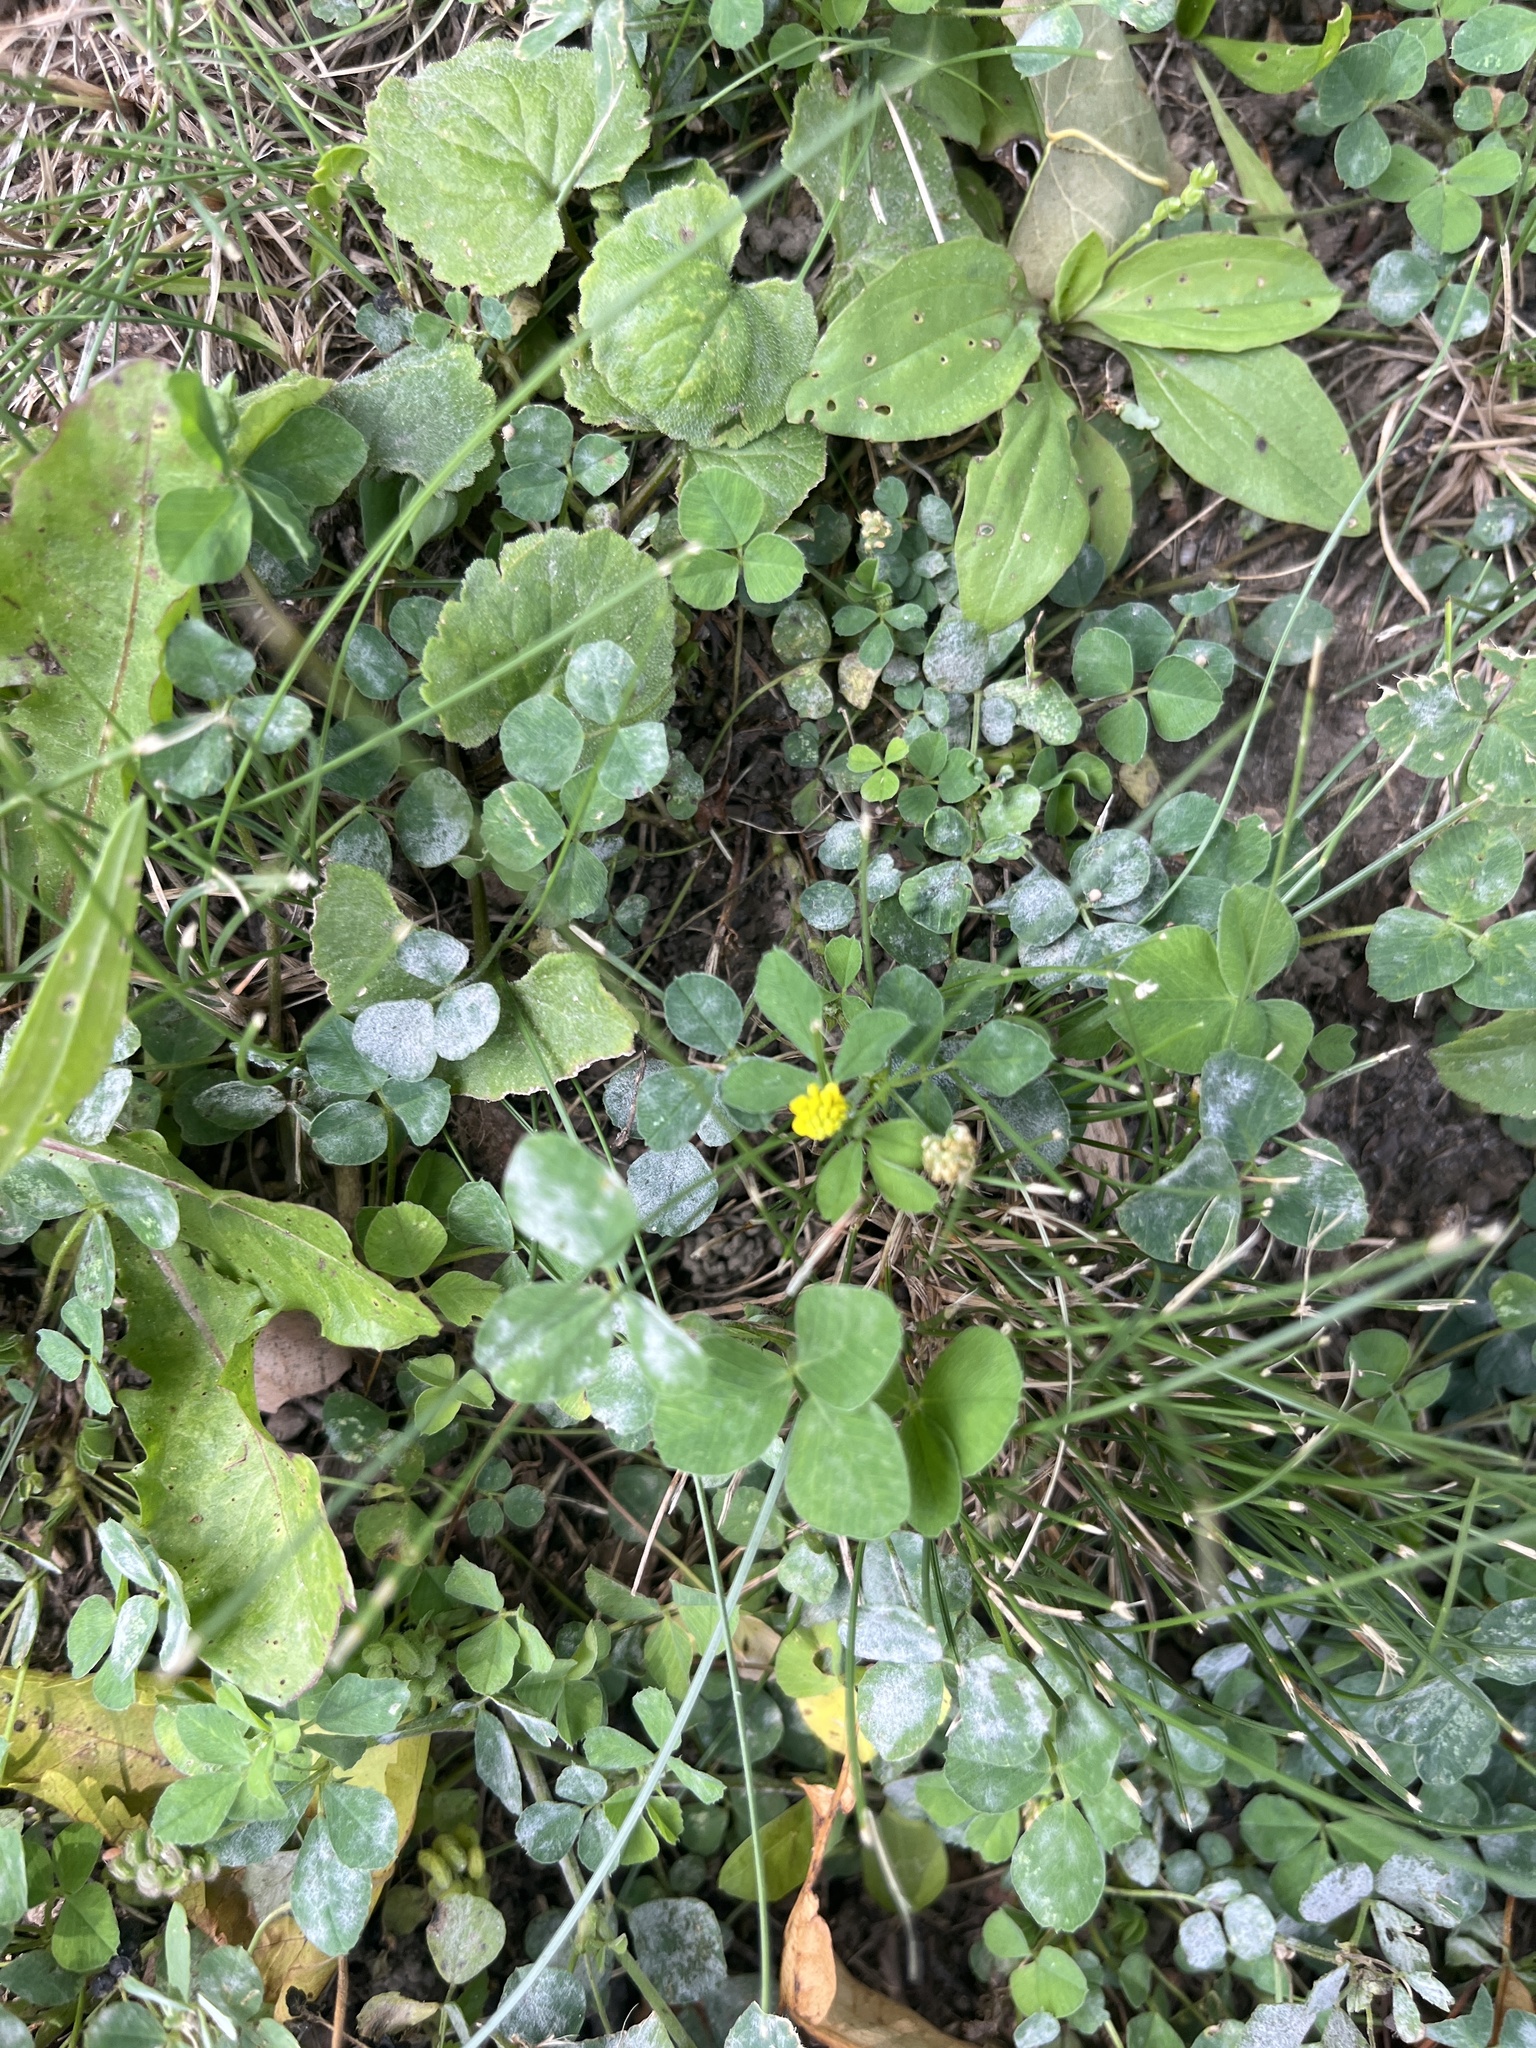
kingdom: Plantae
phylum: Tracheophyta
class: Magnoliopsida
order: Fabales
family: Fabaceae
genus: Medicago
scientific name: Medicago lupulina
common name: Black medick
